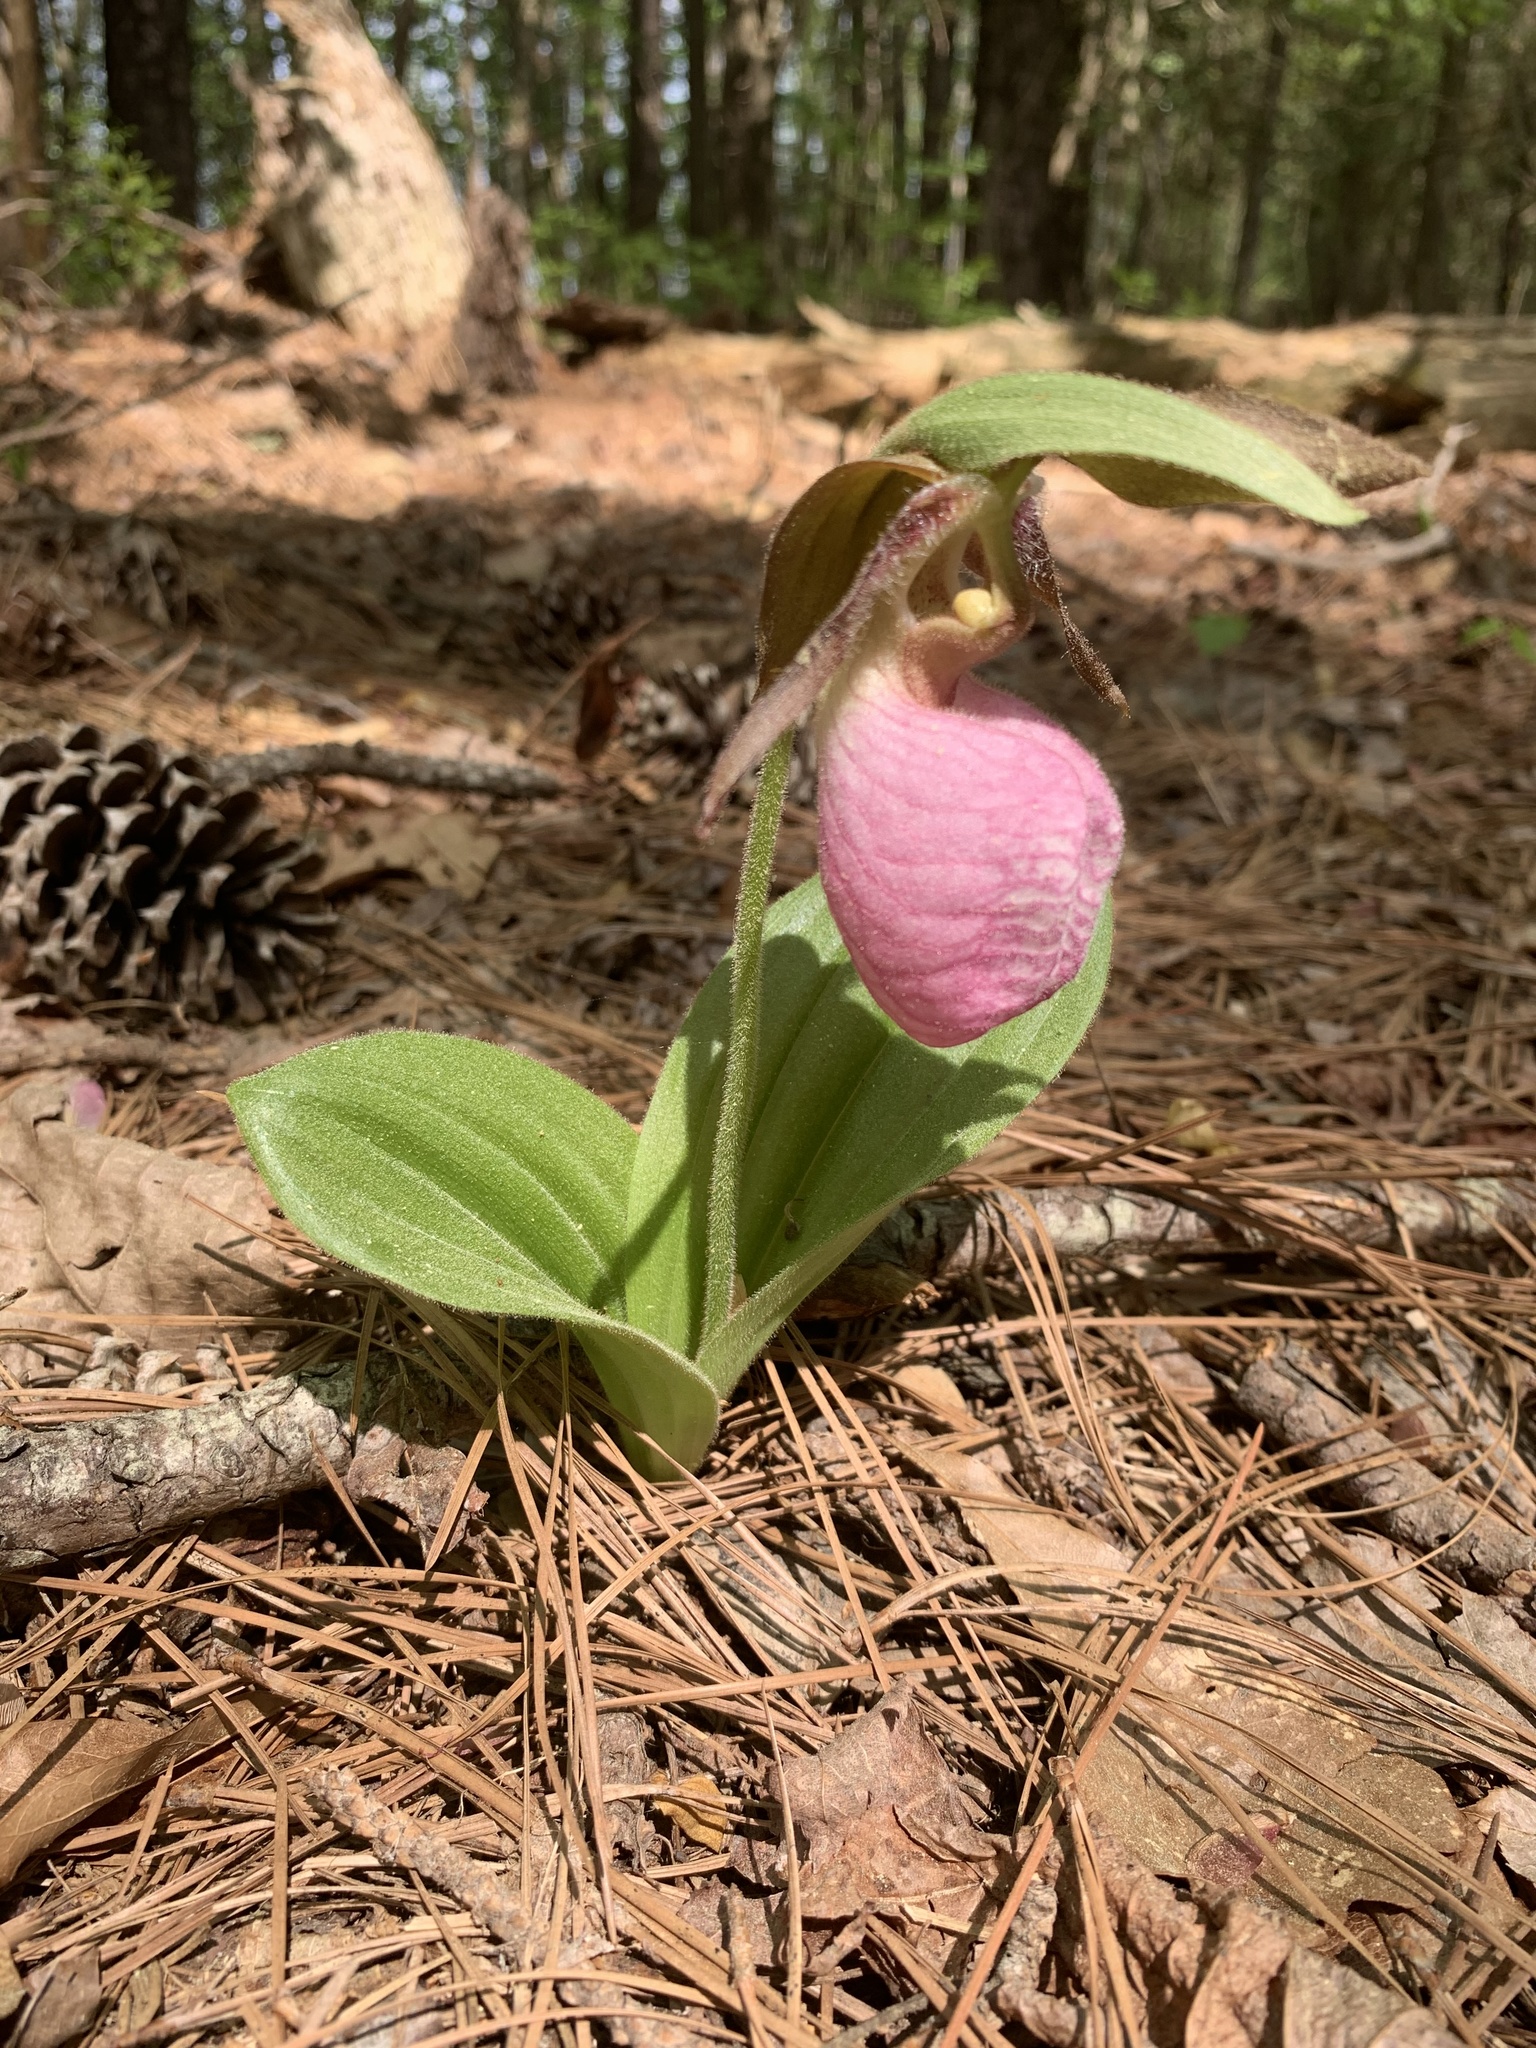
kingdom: Plantae
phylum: Tracheophyta
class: Liliopsida
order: Asparagales
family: Orchidaceae
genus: Cypripedium
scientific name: Cypripedium acaule
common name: Pink lady's-slipper
